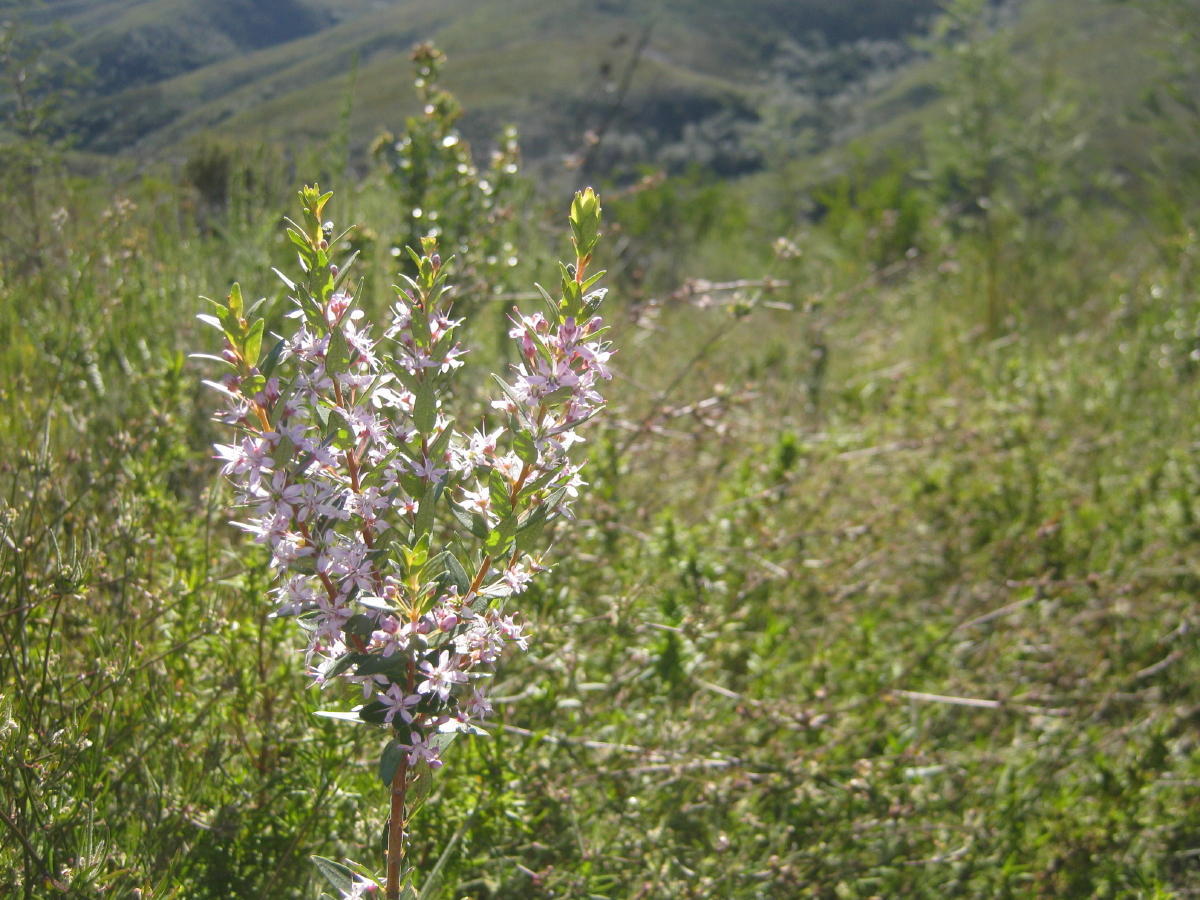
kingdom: Plantae
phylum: Tracheophyta
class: Magnoliopsida
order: Sapindales
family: Rutaceae
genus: Agathosma
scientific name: Agathosma ovata
